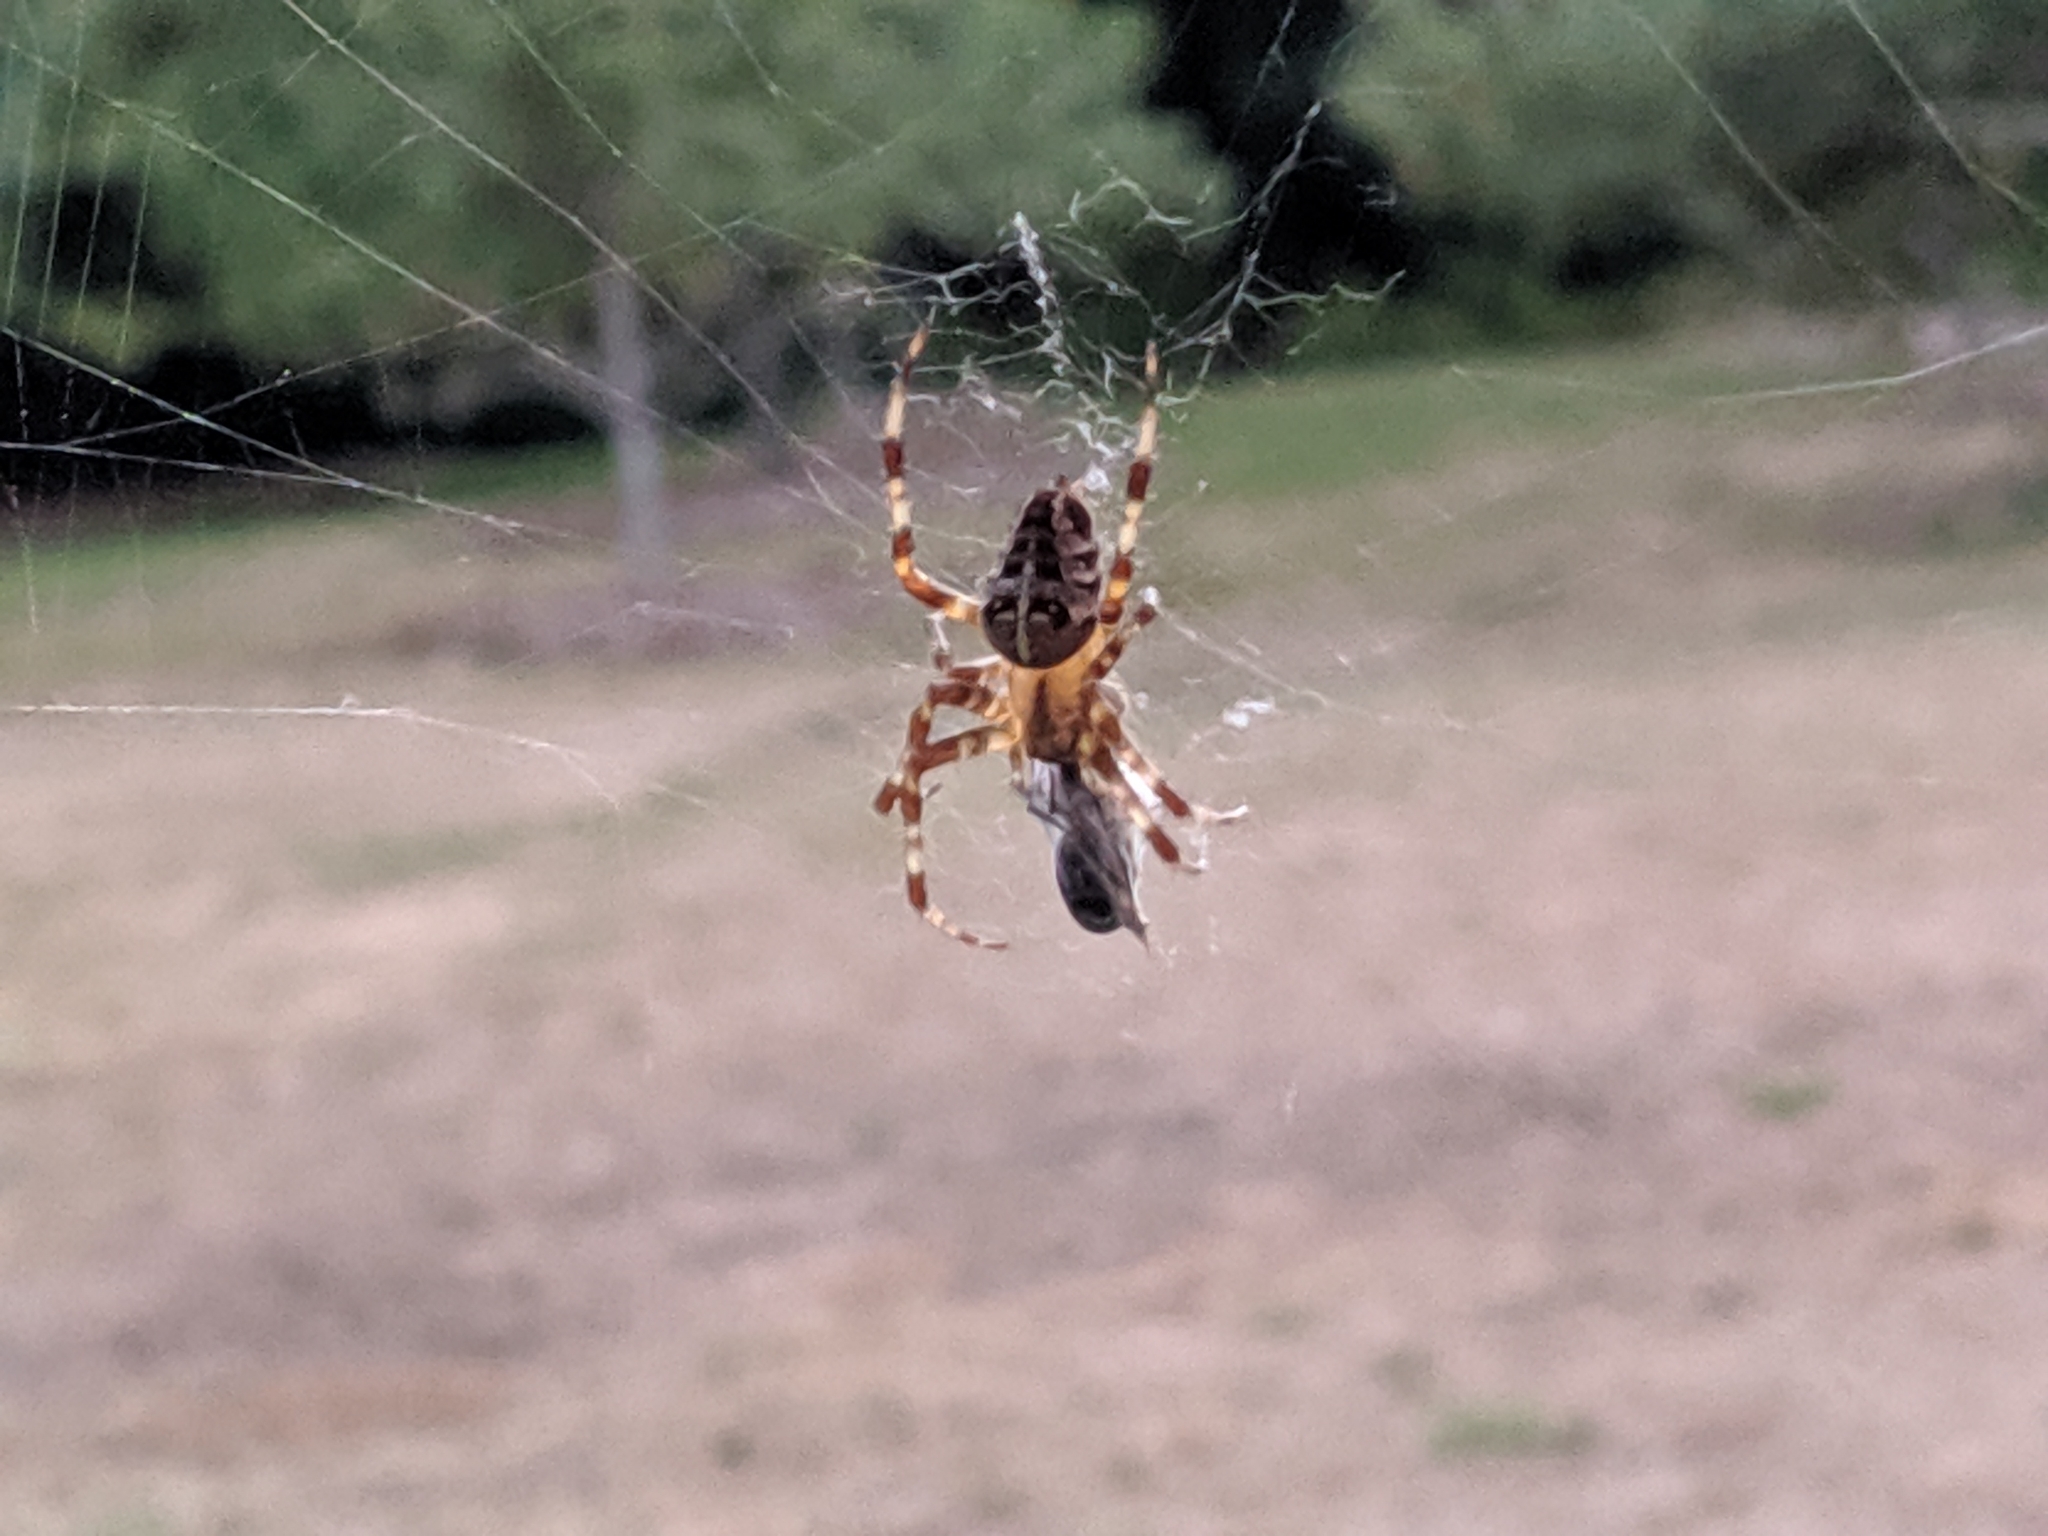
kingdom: Animalia
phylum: Arthropoda
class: Arachnida
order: Araneae
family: Araneidae
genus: Araneus
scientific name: Araneus diadematus
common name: Cross orbweaver
